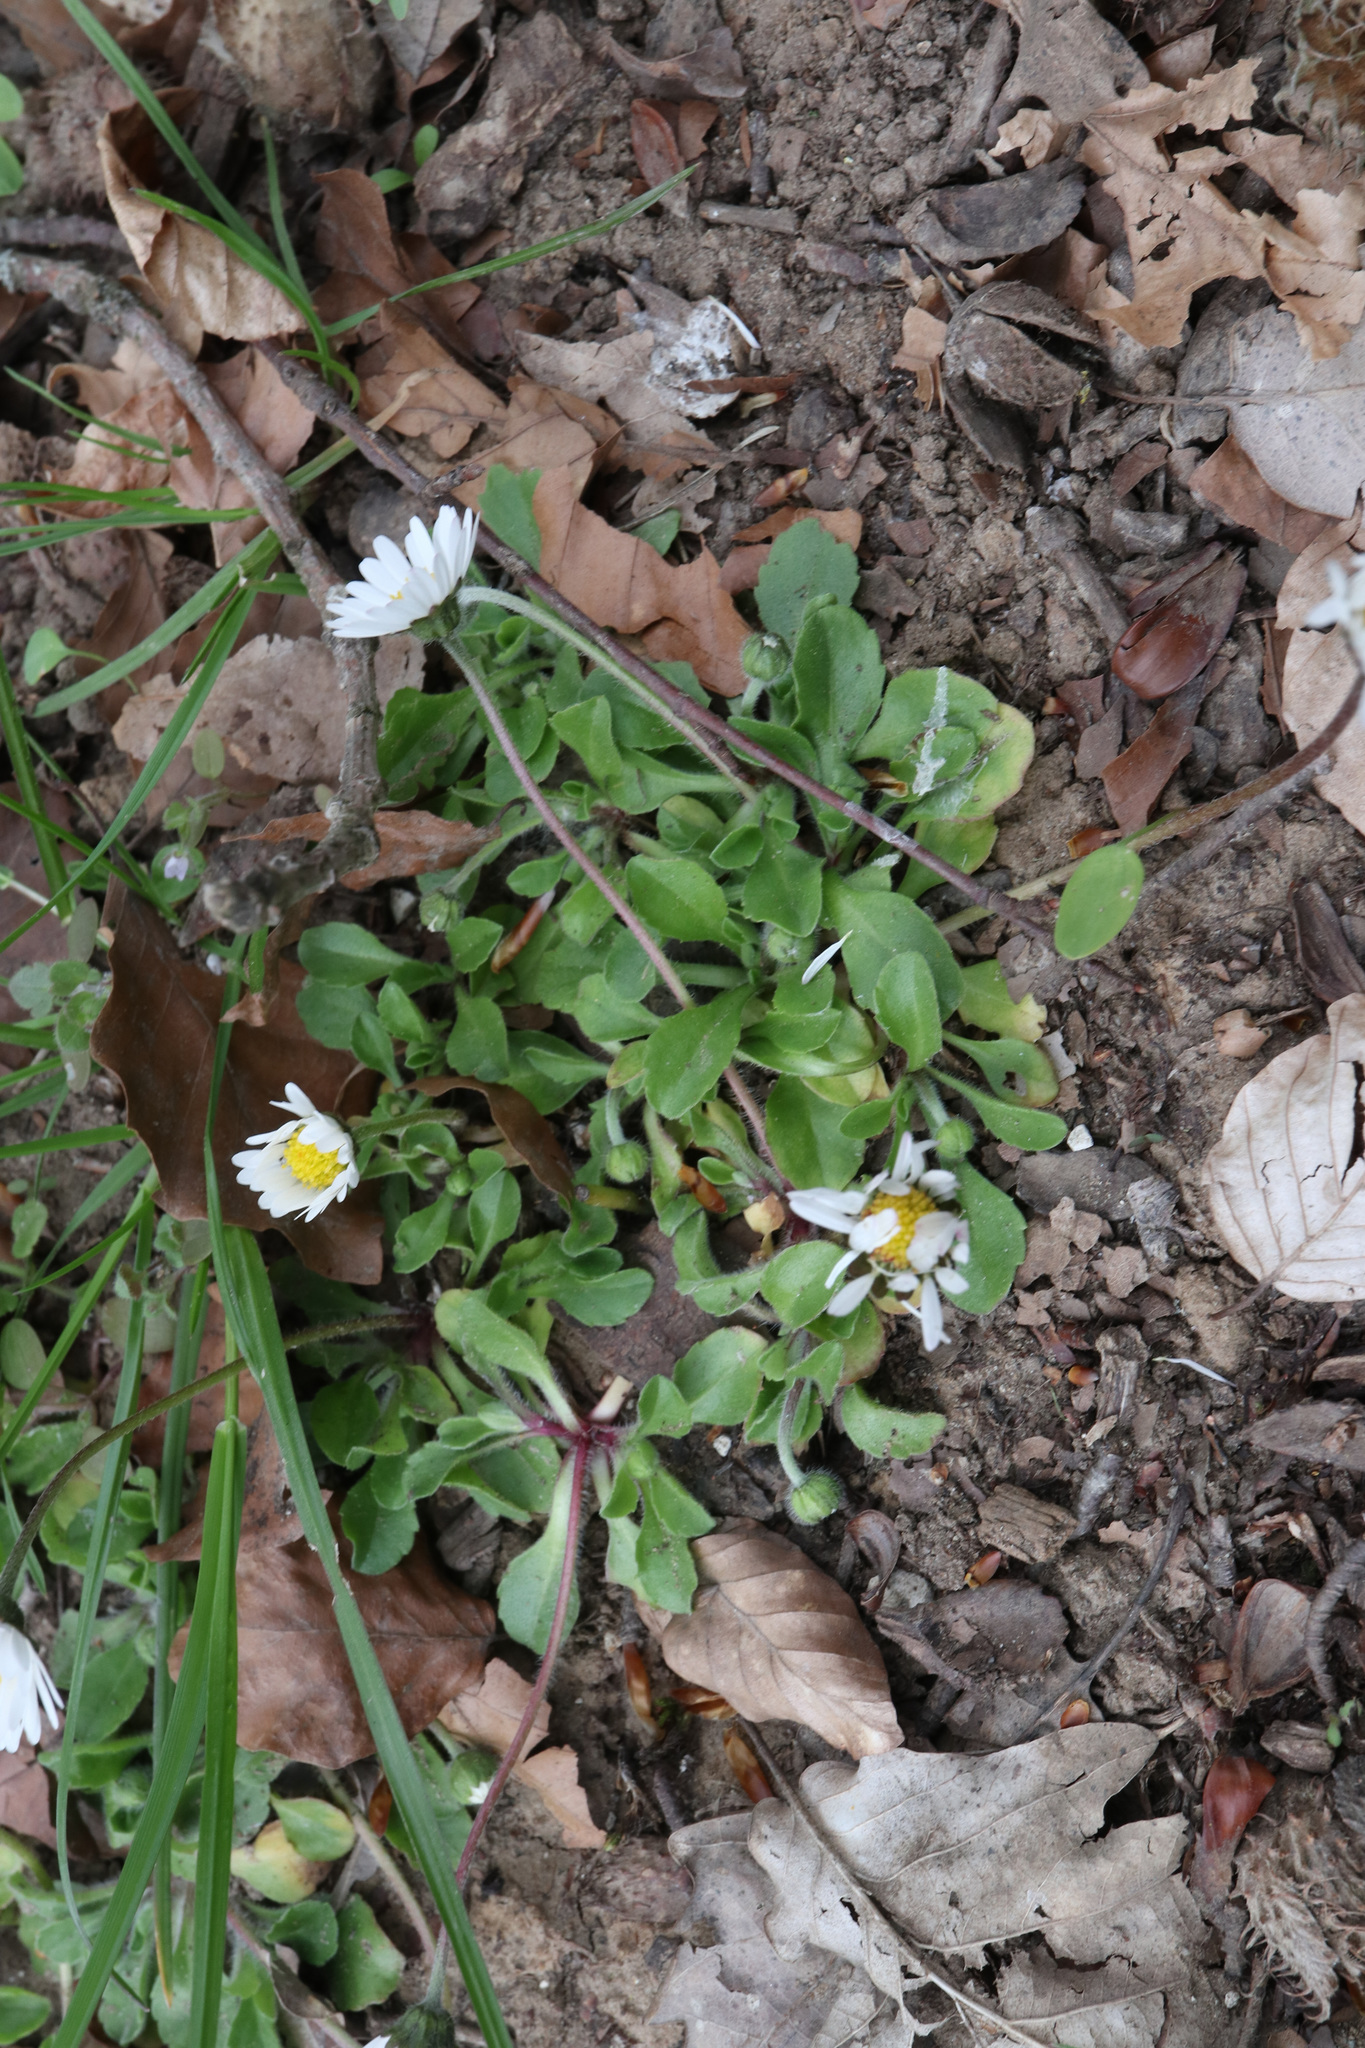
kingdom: Plantae
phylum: Tracheophyta
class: Magnoliopsida
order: Asterales
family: Asteraceae
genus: Bellis
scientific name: Bellis perennis
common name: Lawndaisy
